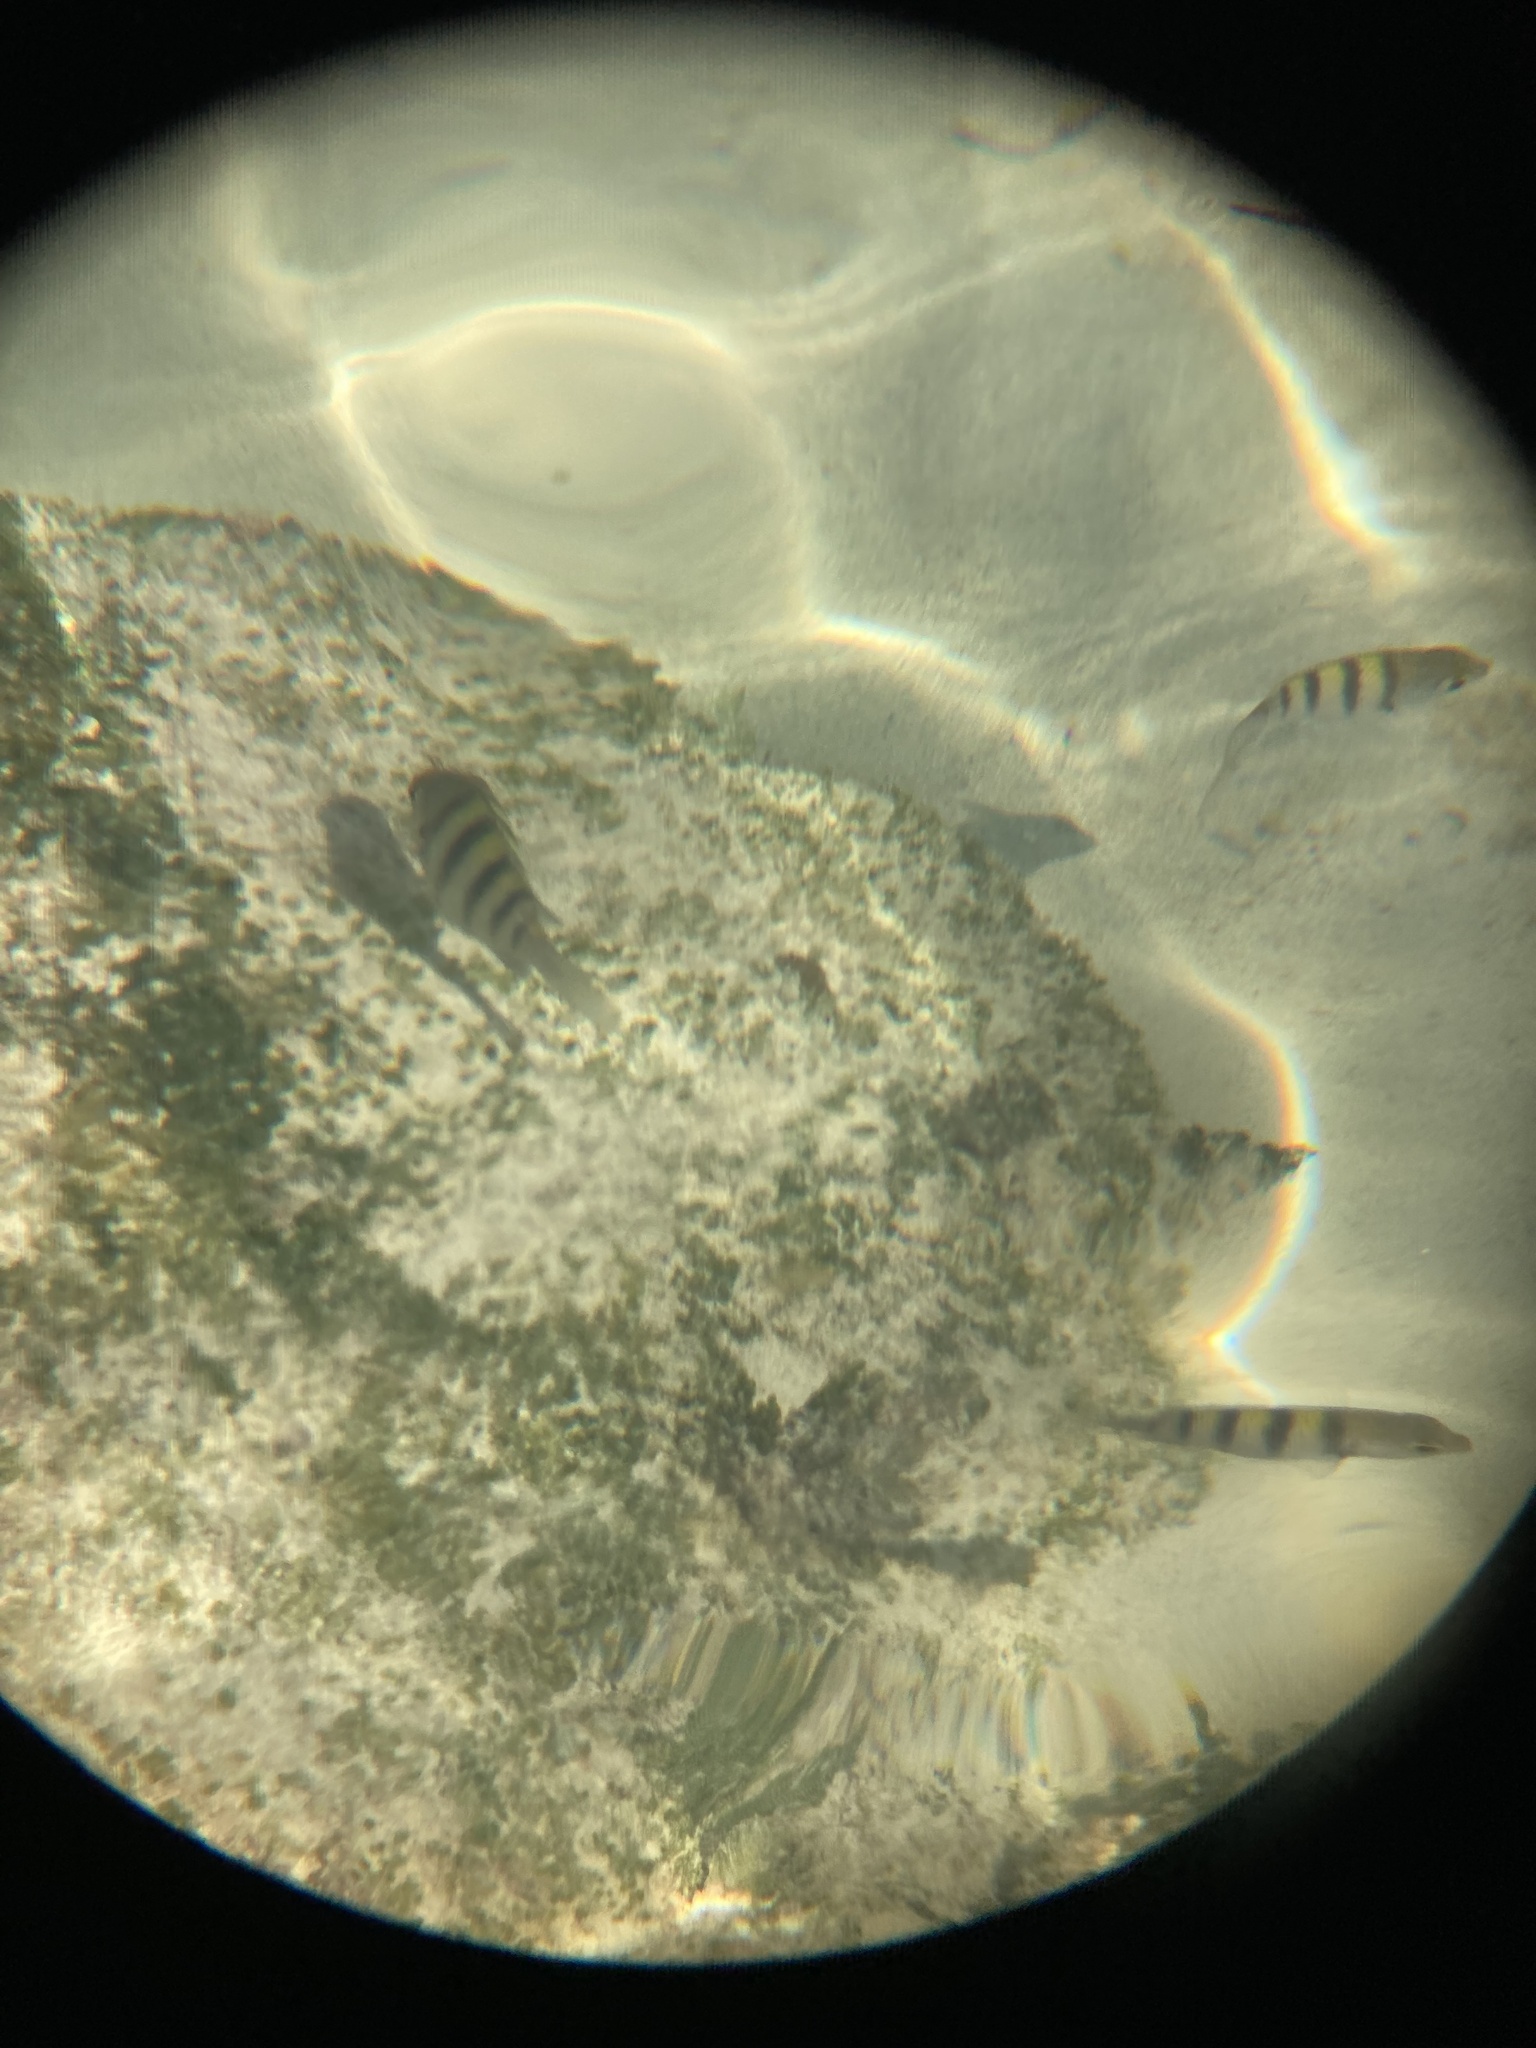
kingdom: Animalia
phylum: Chordata
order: Perciformes
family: Pomacentridae
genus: Abudefduf
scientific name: Abudefduf saxatilis
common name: Sergeant major
